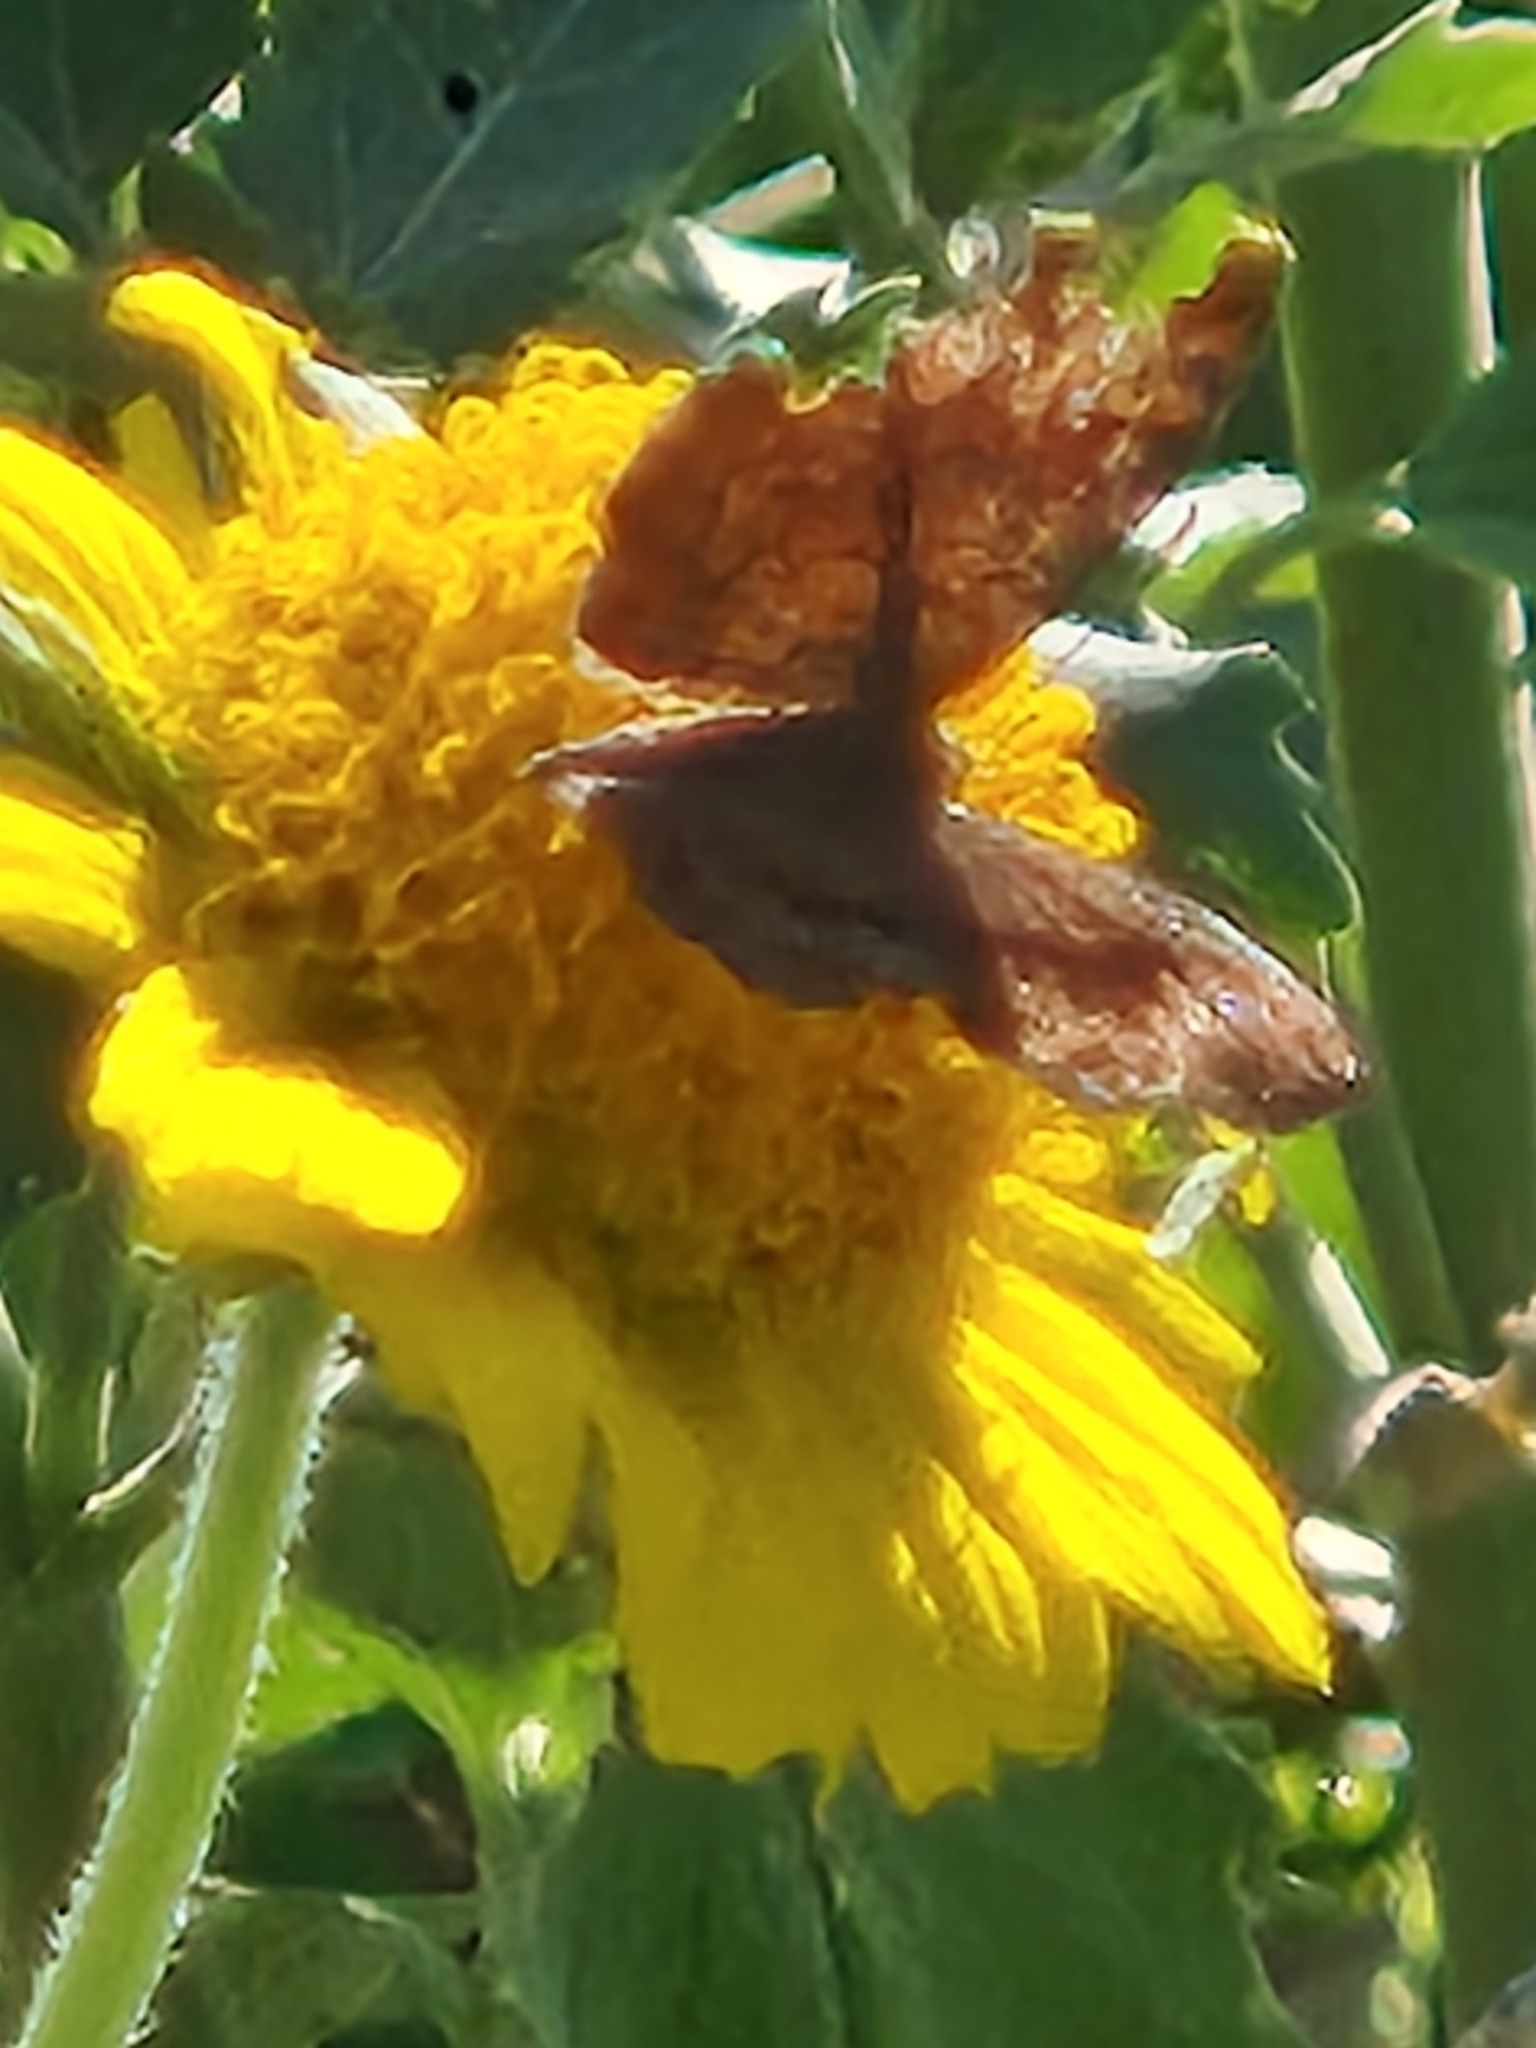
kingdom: Animalia
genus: Calephelis
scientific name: Calephelis perditalis
